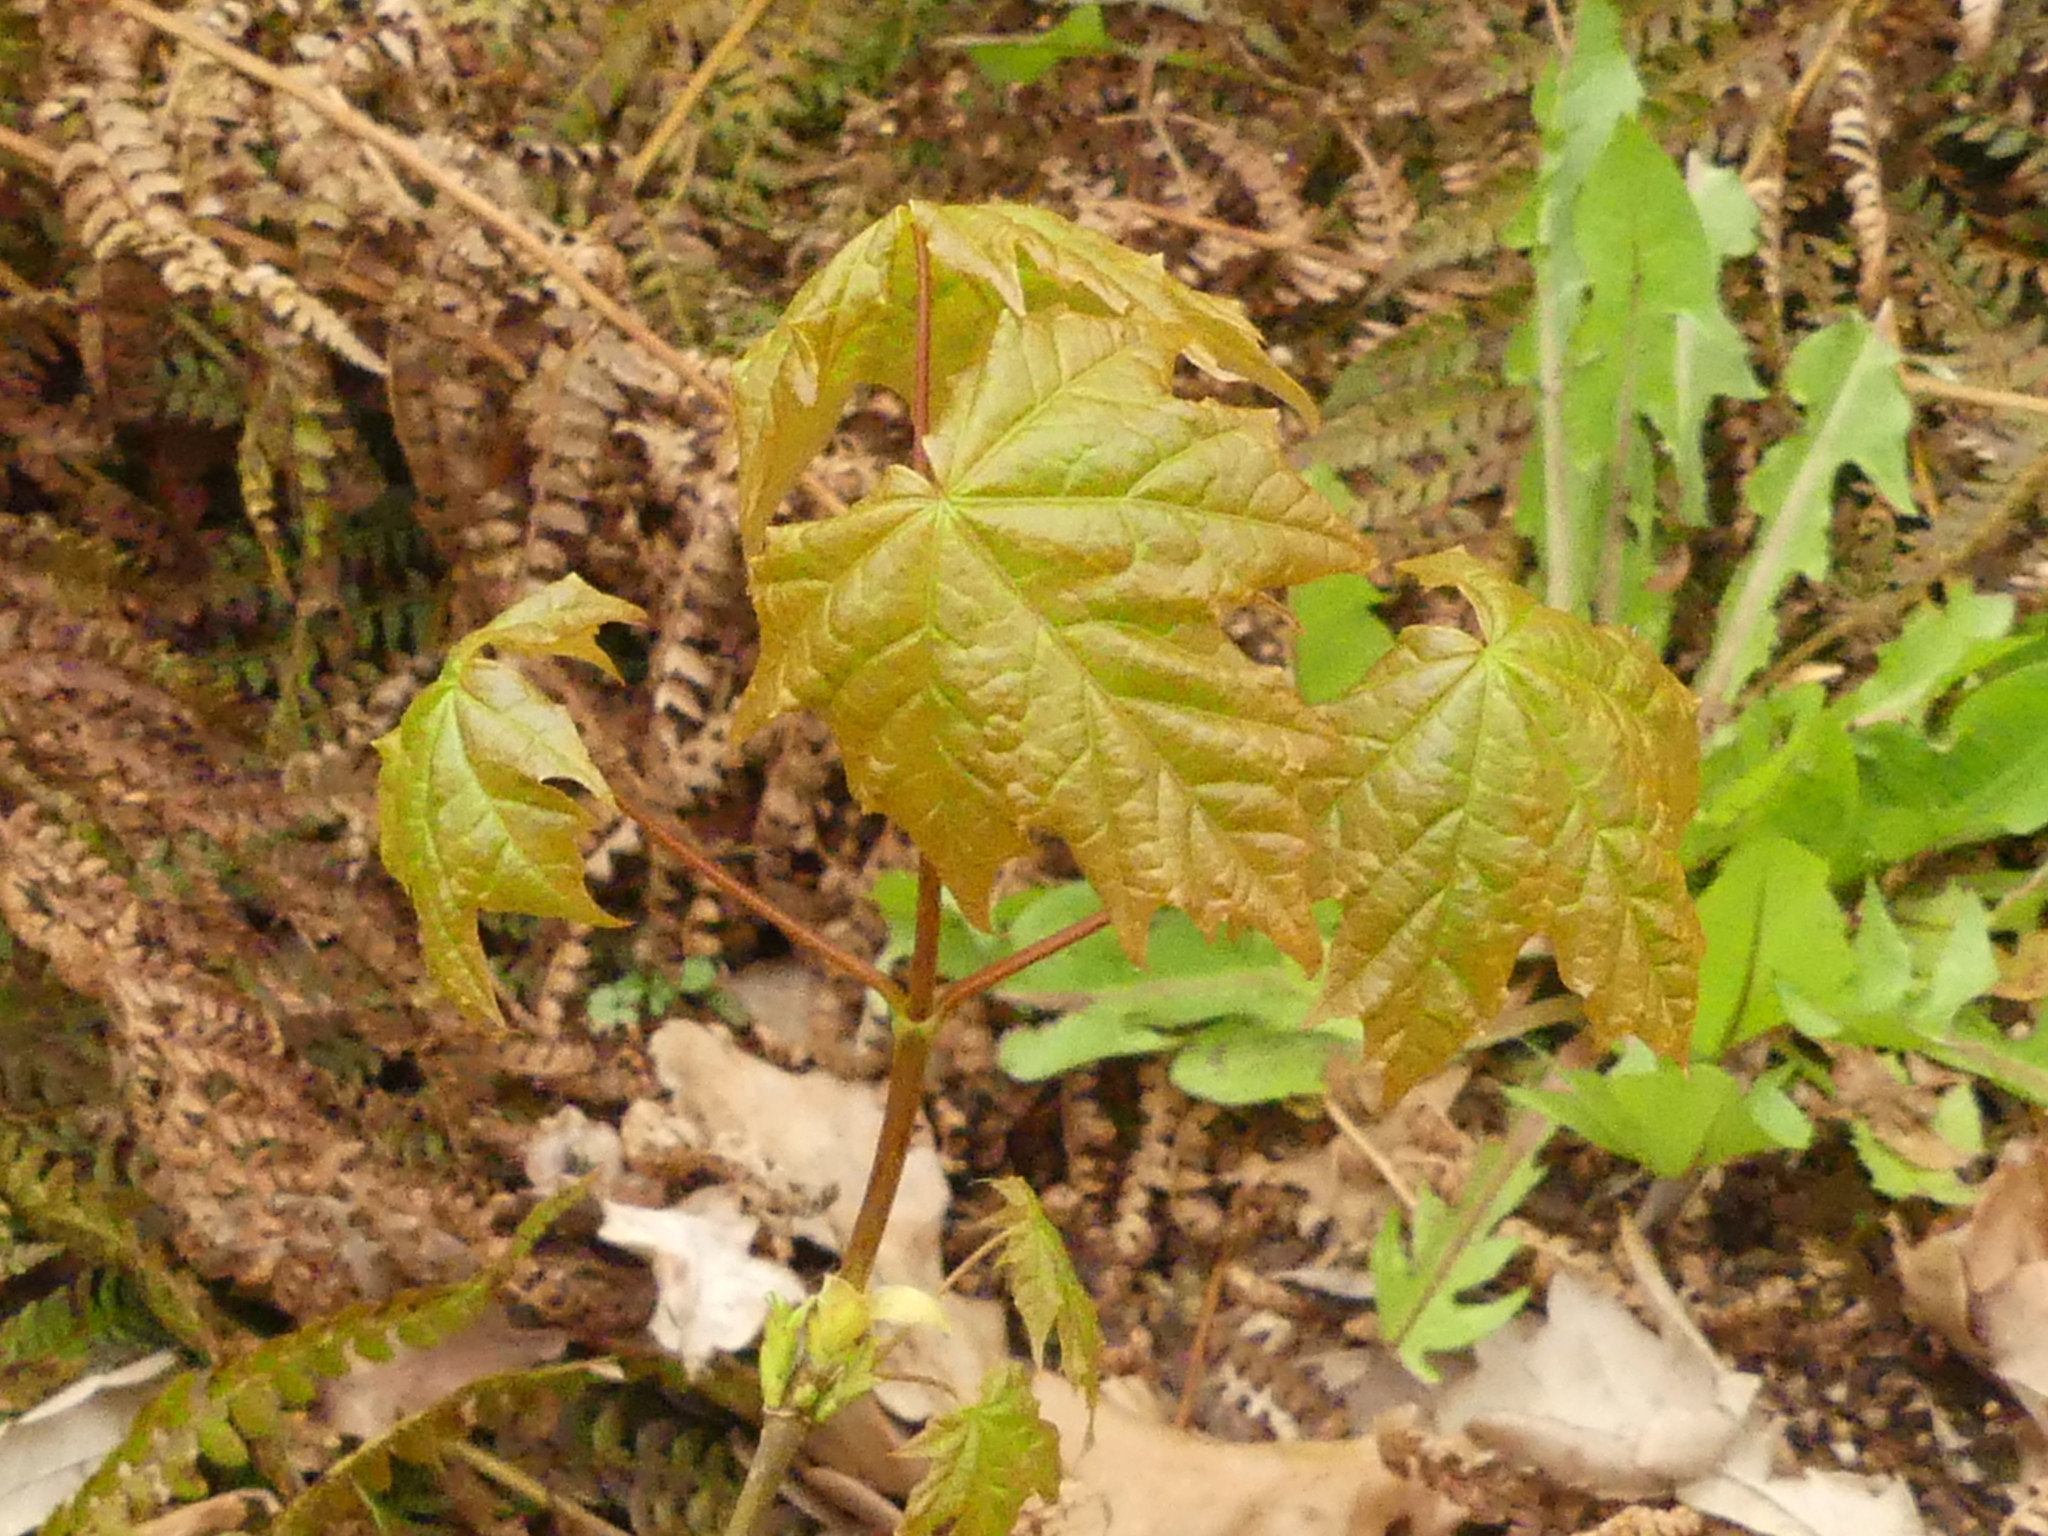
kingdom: Plantae
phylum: Tracheophyta
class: Magnoliopsida
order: Sapindales
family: Sapindaceae
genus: Acer
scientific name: Acer platanoides
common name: Norway maple
